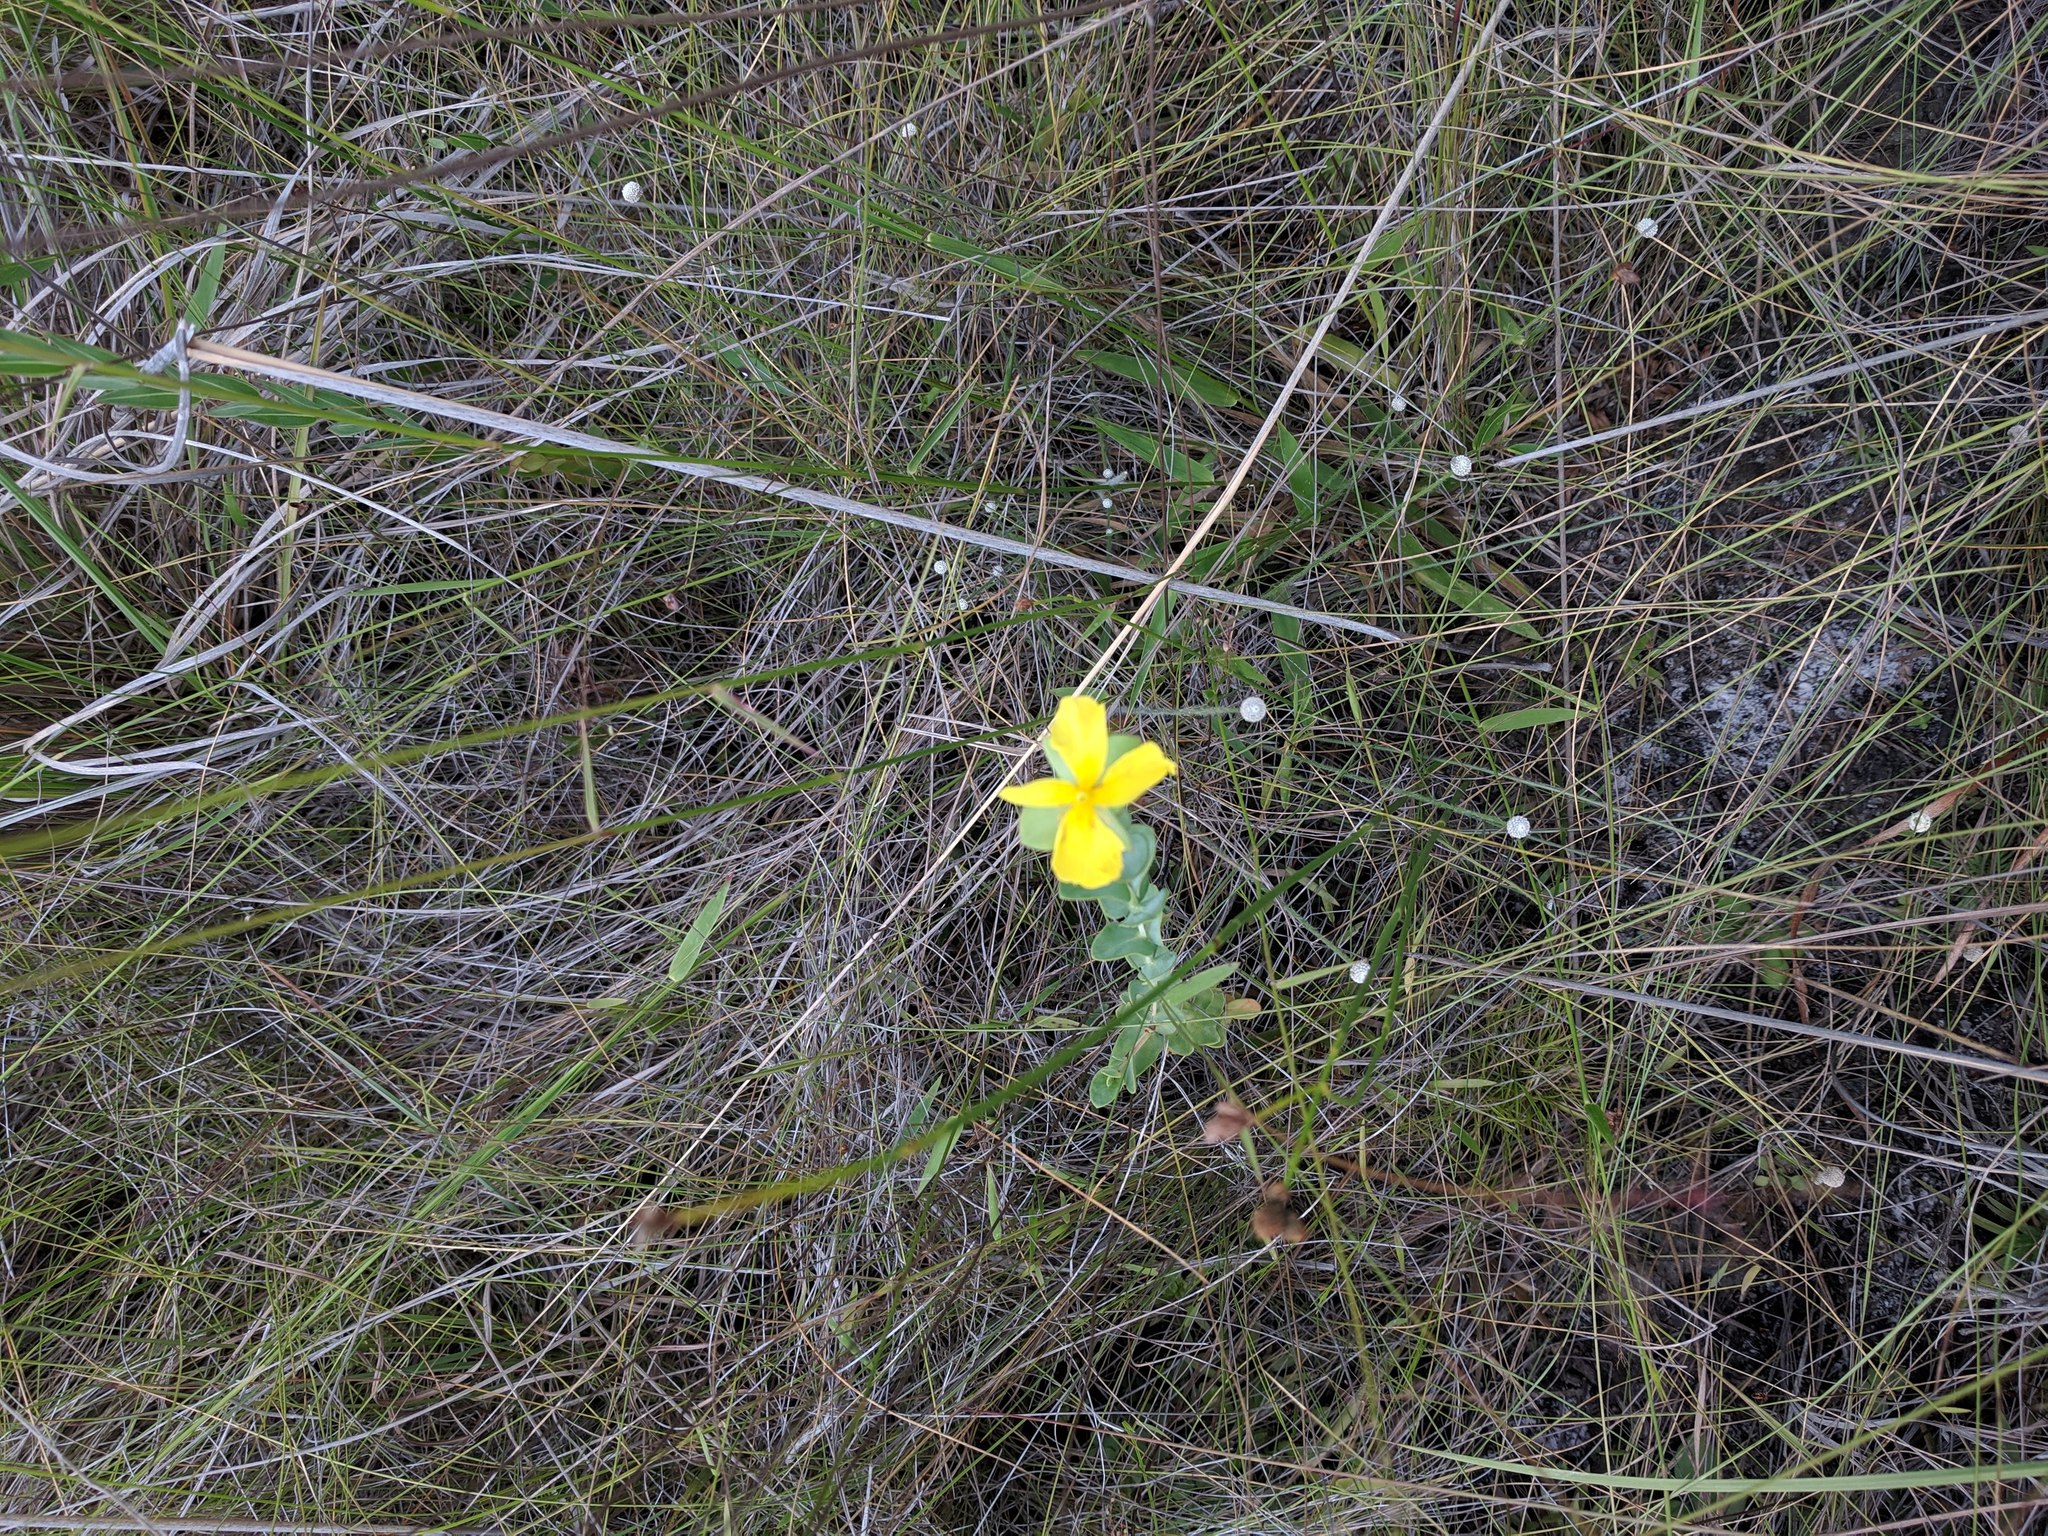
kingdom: Plantae
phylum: Tracheophyta
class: Magnoliopsida
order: Malpighiales
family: Hypericaceae
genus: Hypericum
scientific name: Hypericum tetrapetalum
